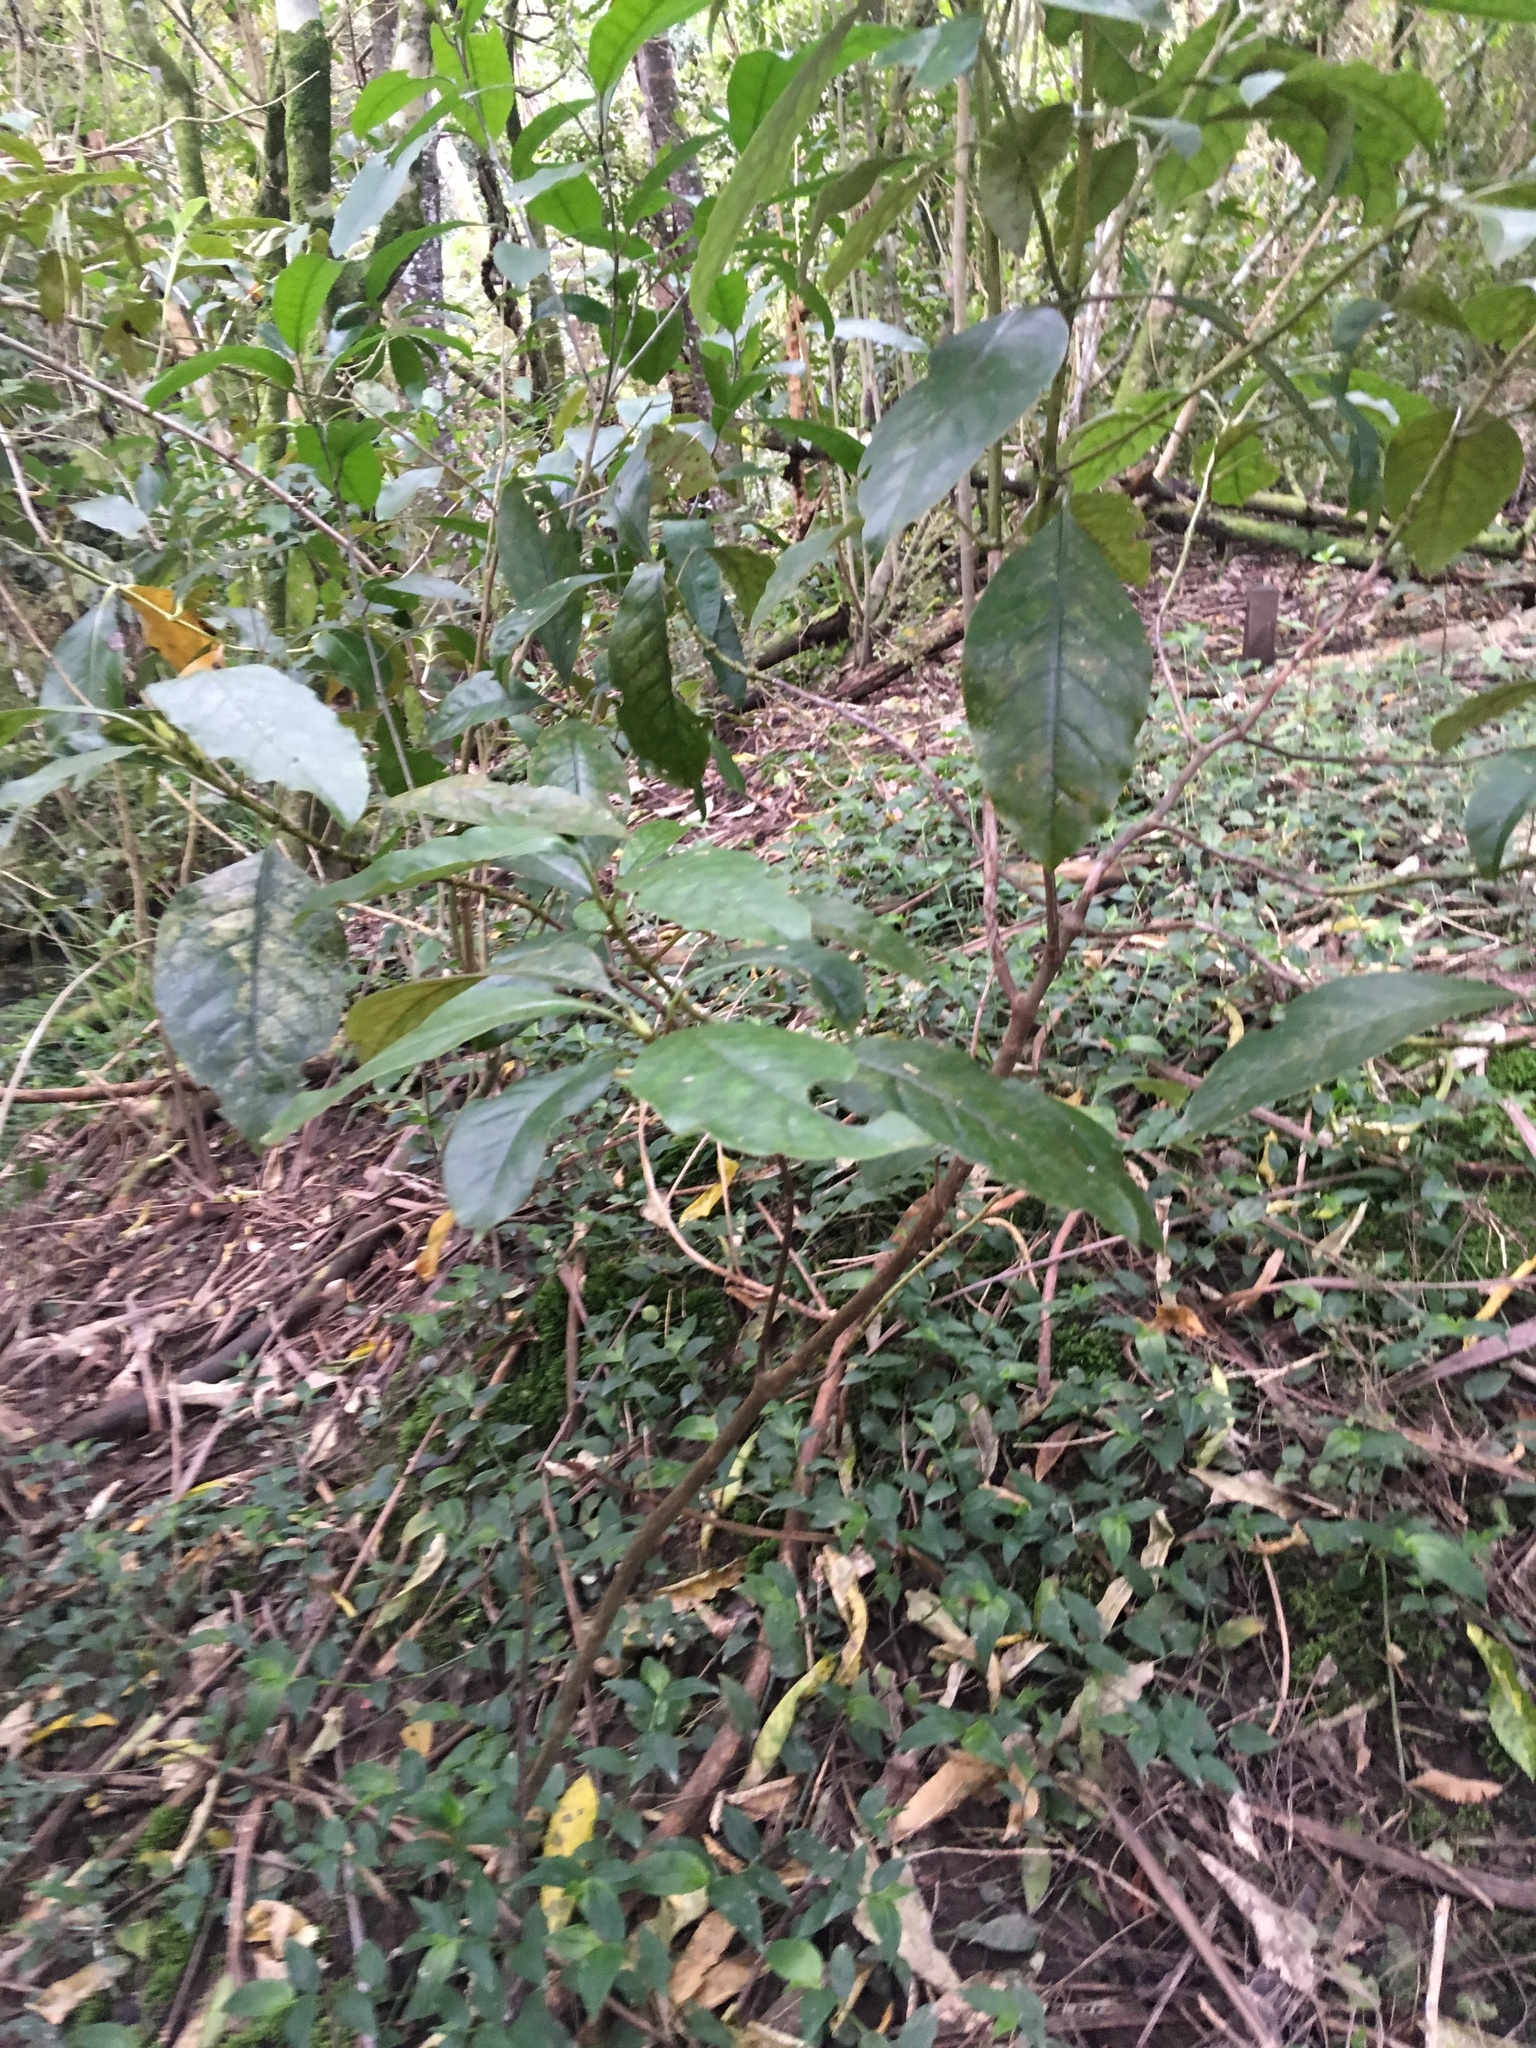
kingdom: Plantae
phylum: Tracheophyta
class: Magnoliopsida
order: Gentianales
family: Rubiaceae
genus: Coprosma
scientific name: Coprosma autumnalis
